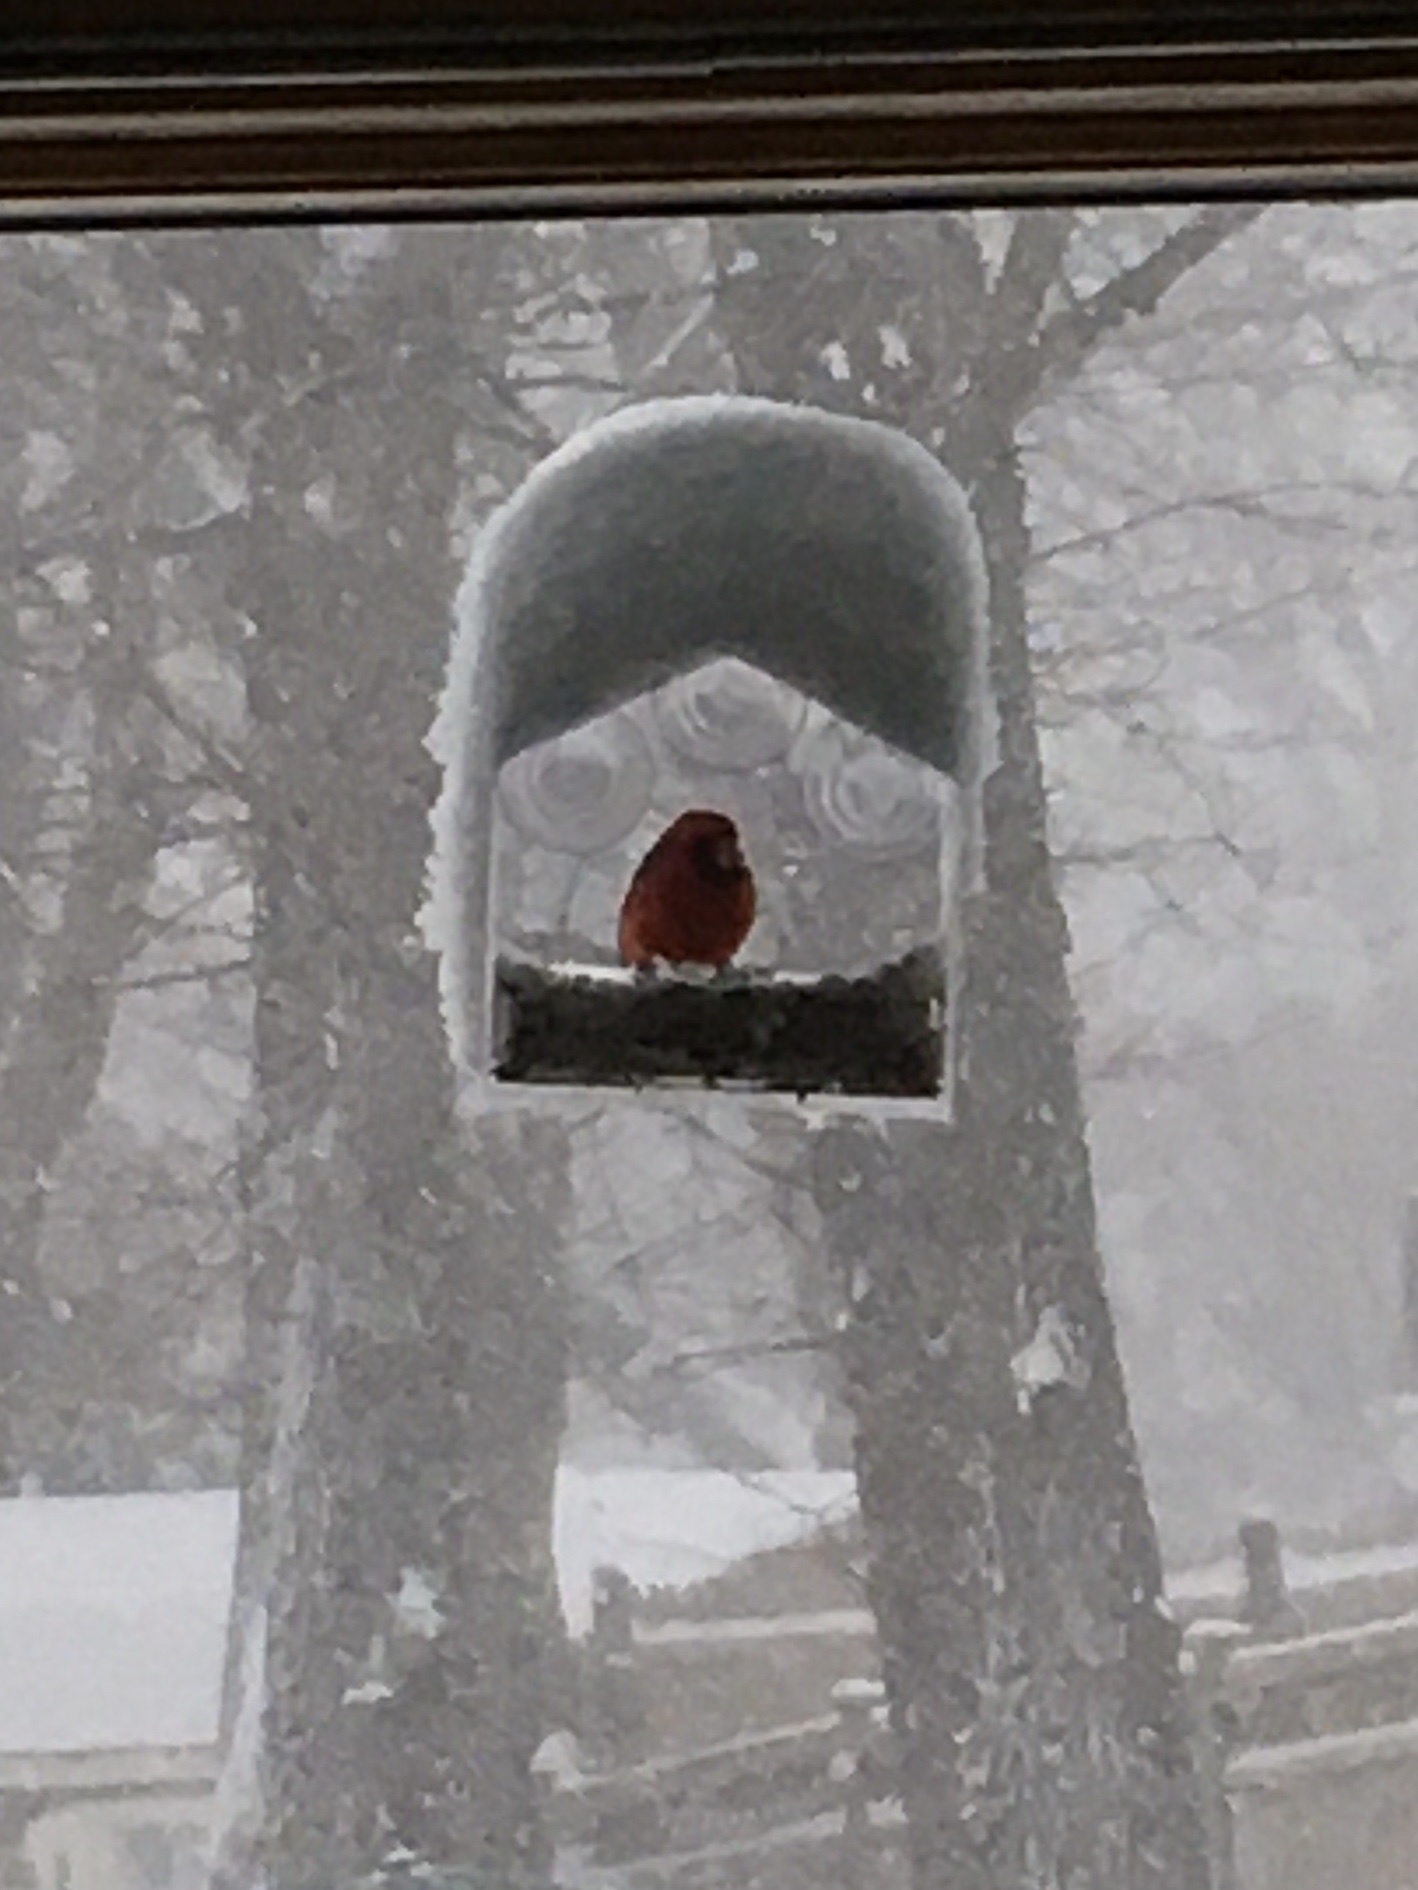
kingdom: Animalia
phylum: Chordata
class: Aves
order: Passeriformes
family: Cardinalidae
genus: Cardinalis
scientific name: Cardinalis cardinalis
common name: Northern cardinal
